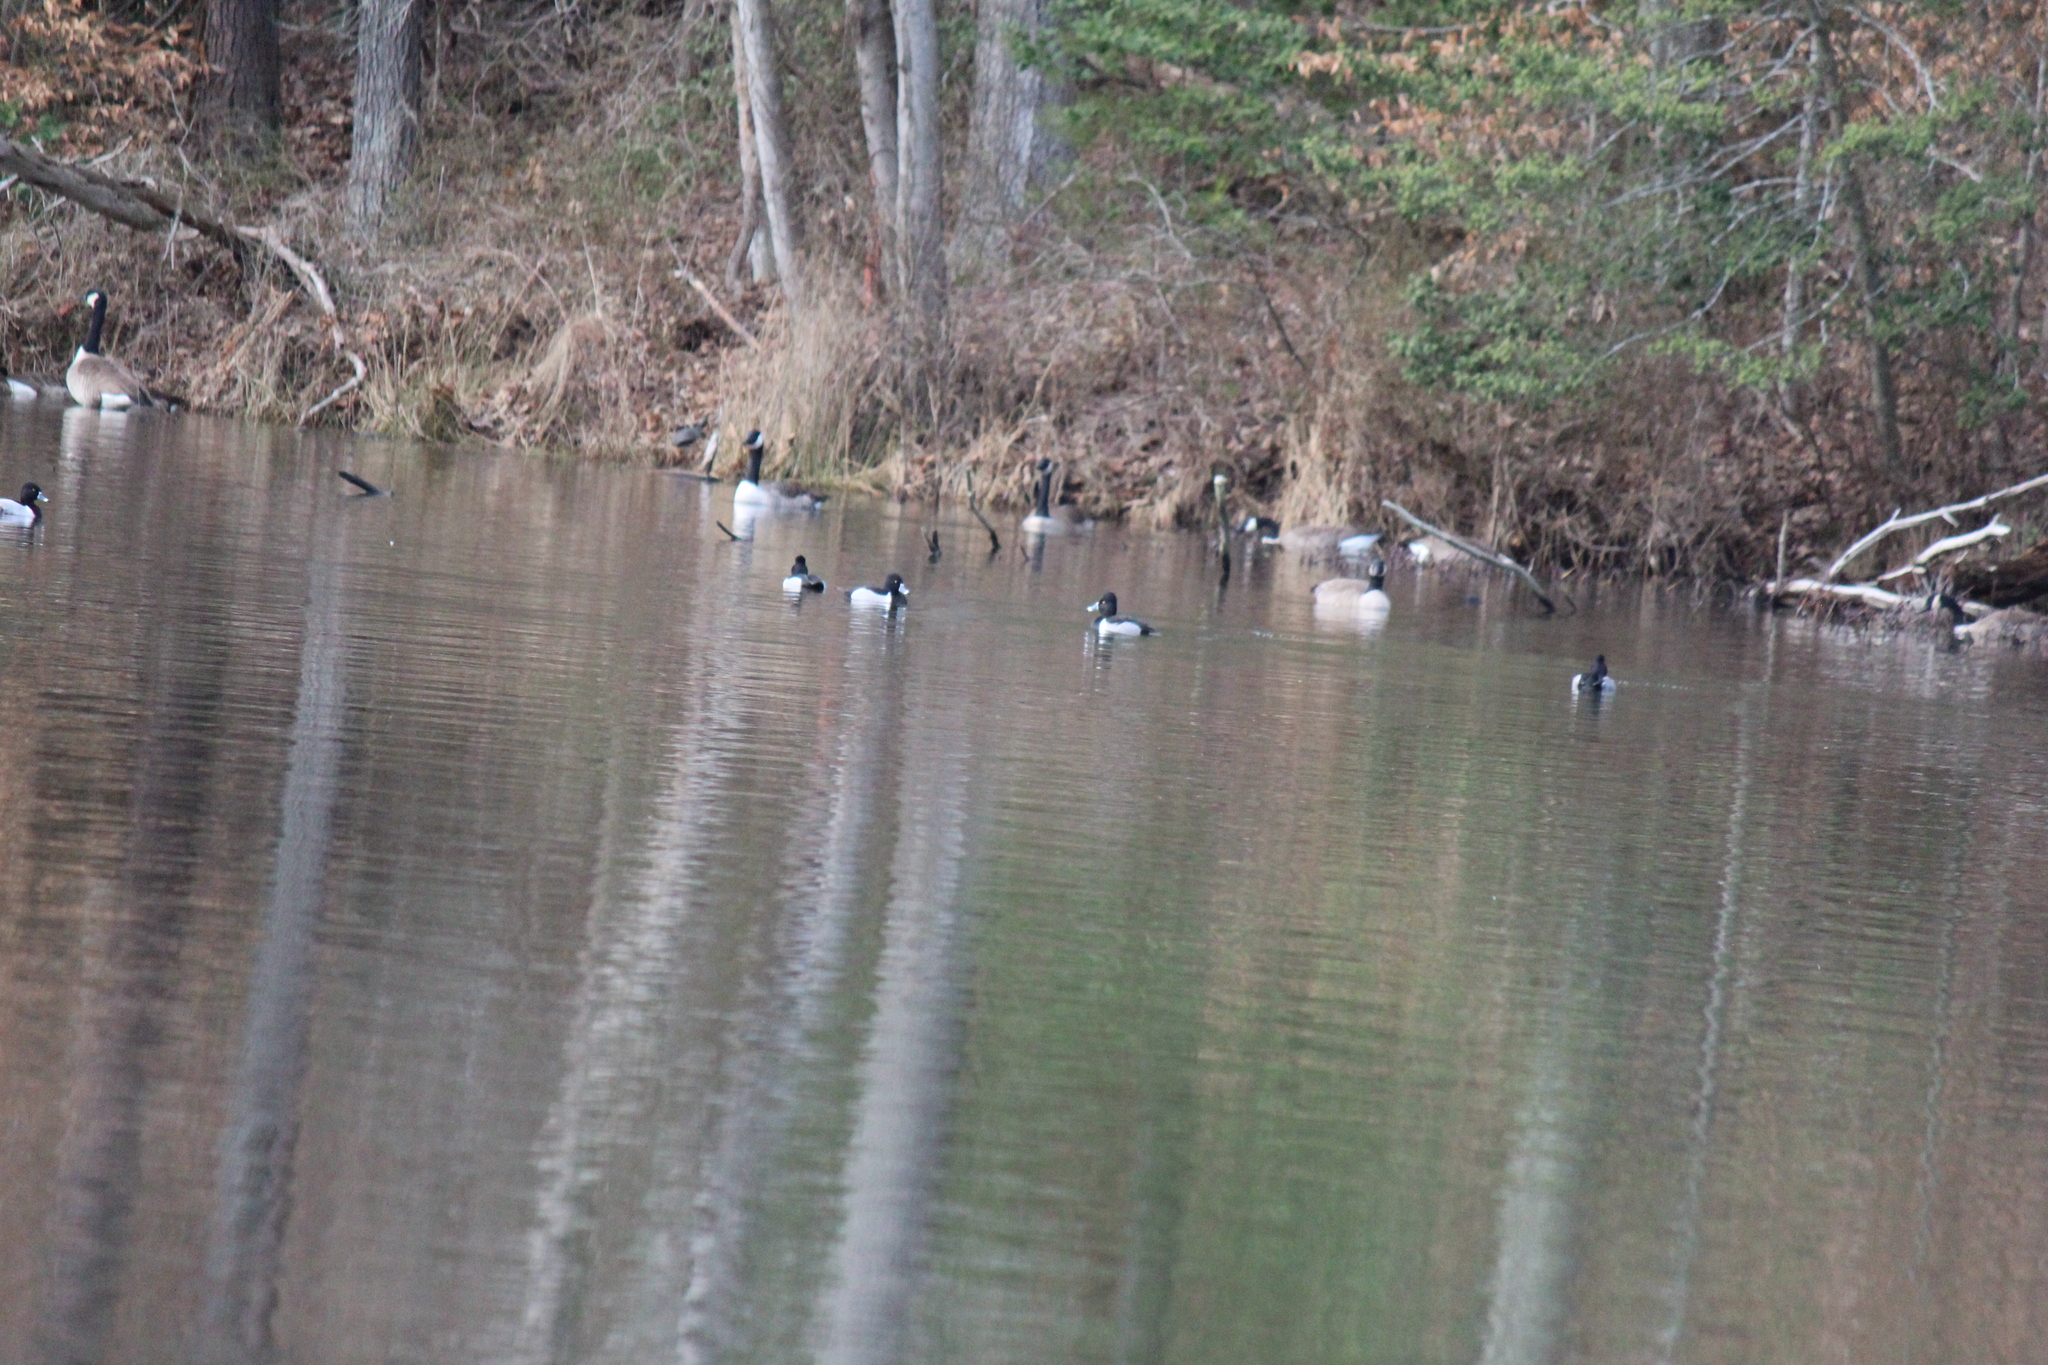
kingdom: Animalia
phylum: Chordata
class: Aves
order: Anseriformes
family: Anatidae
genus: Aythya
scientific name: Aythya collaris
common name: Ring-necked duck
